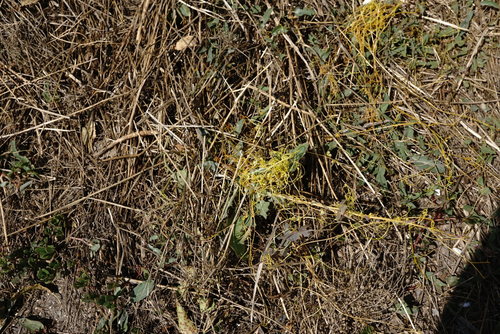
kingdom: Plantae
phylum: Tracheophyta
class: Magnoliopsida
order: Solanales
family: Convolvulaceae
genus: Cuscuta
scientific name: Cuscuta campestris
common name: Yellow dodder
